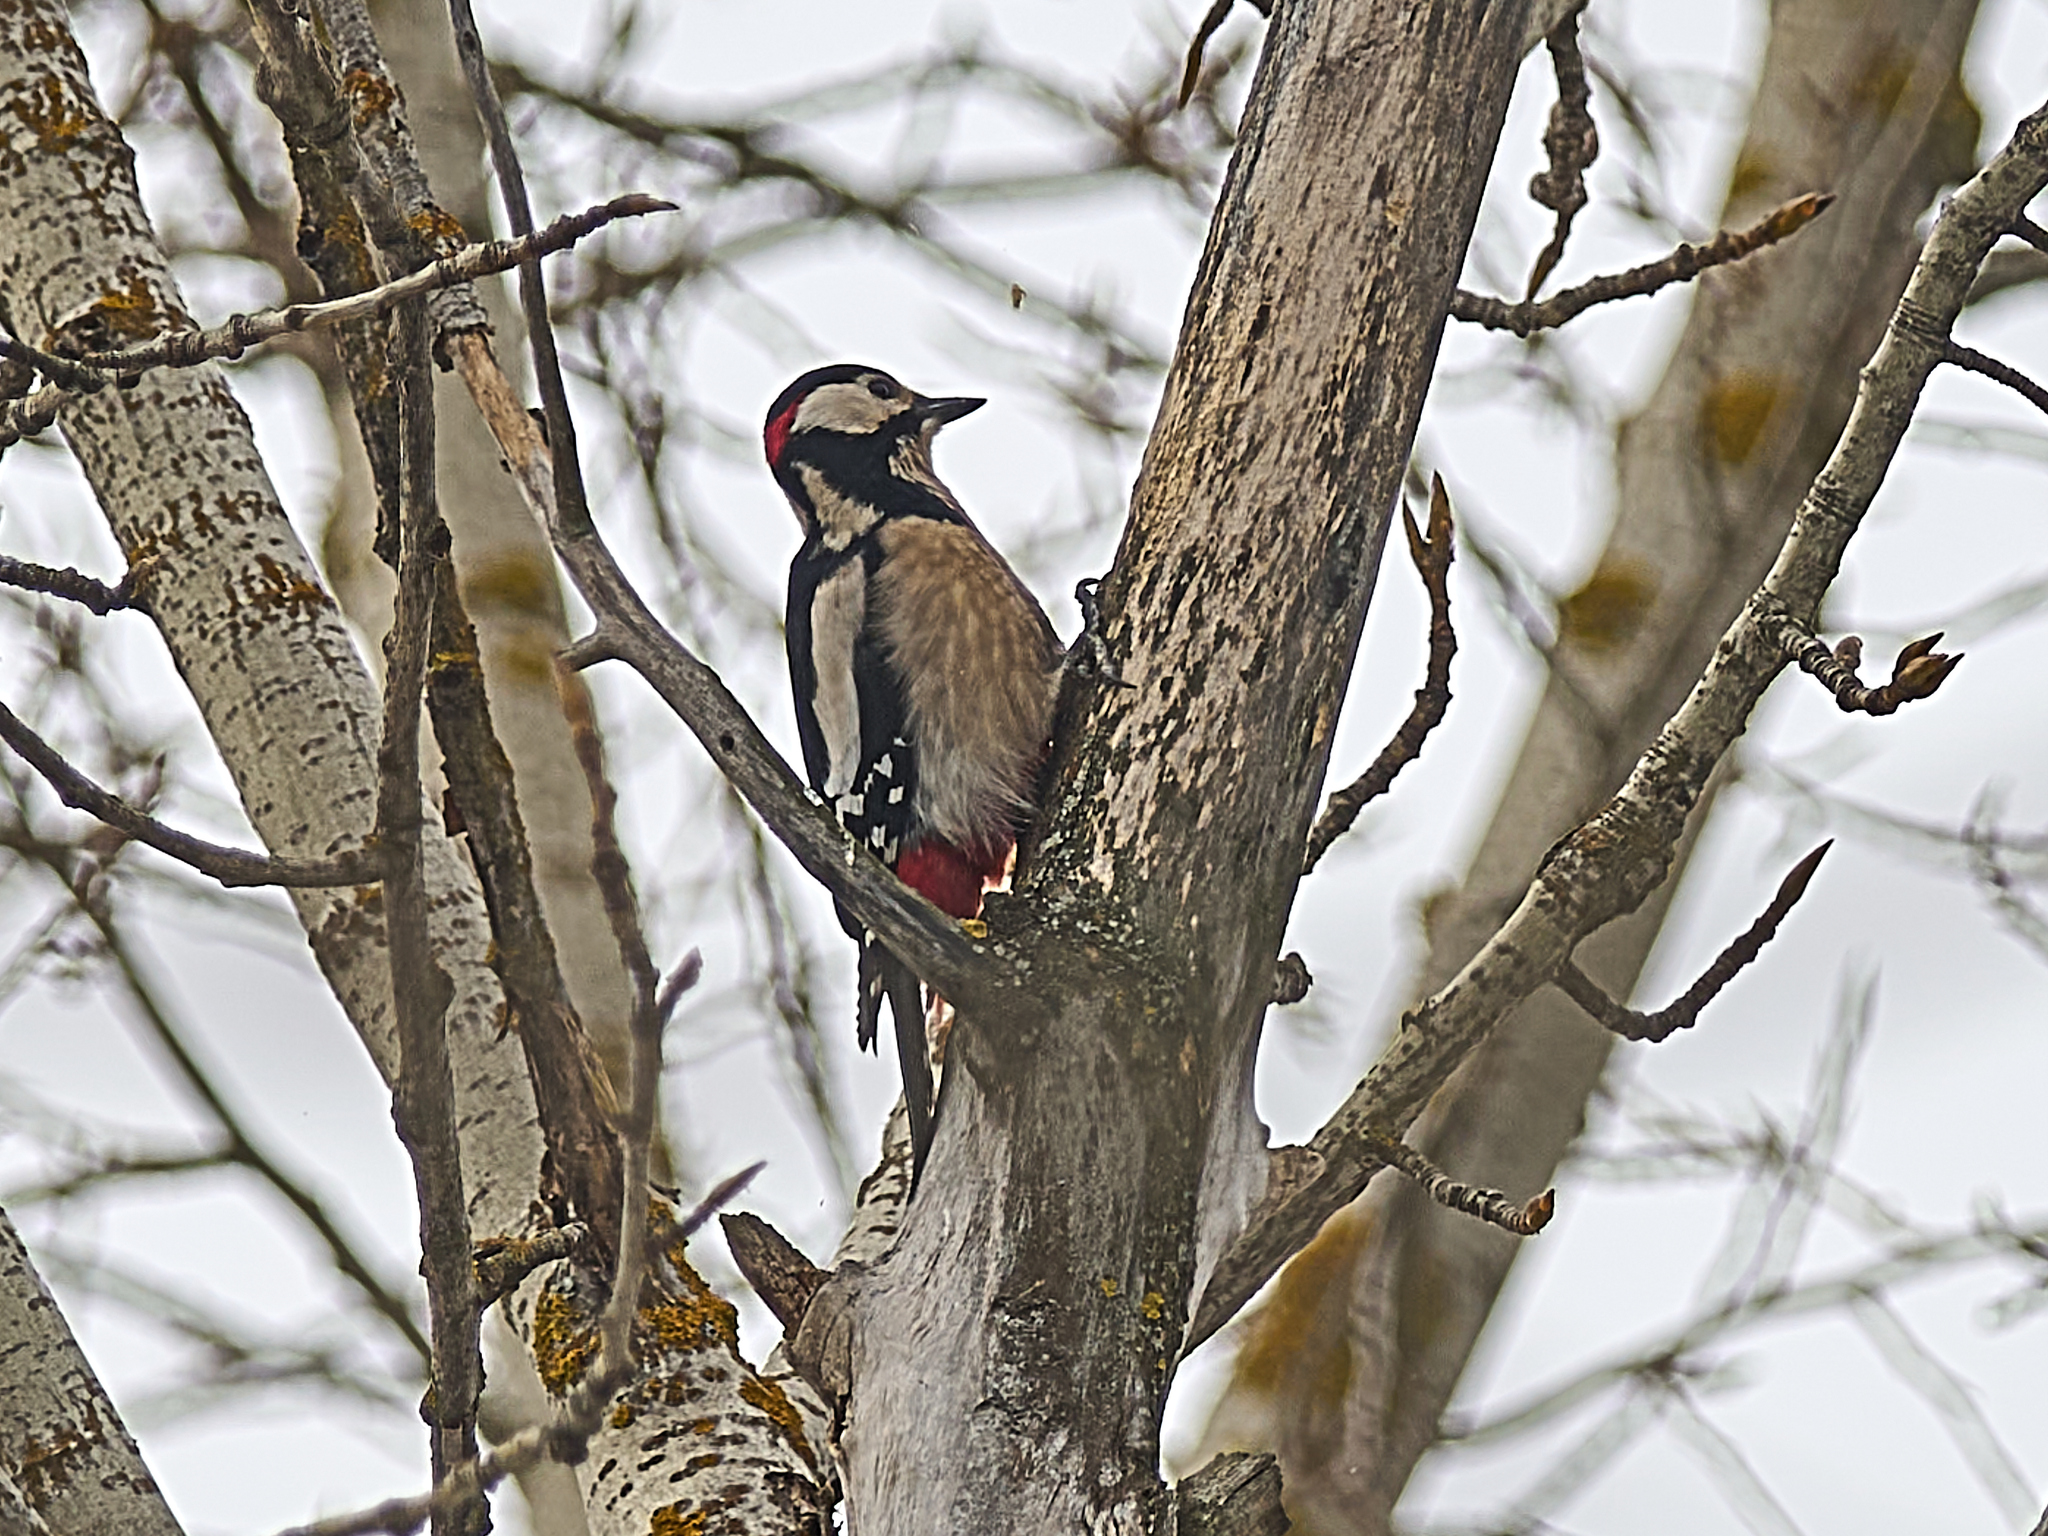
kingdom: Animalia
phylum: Chordata
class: Aves
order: Piciformes
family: Picidae
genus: Dendrocopos
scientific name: Dendrocopos major
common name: Great spotted woodpecker
